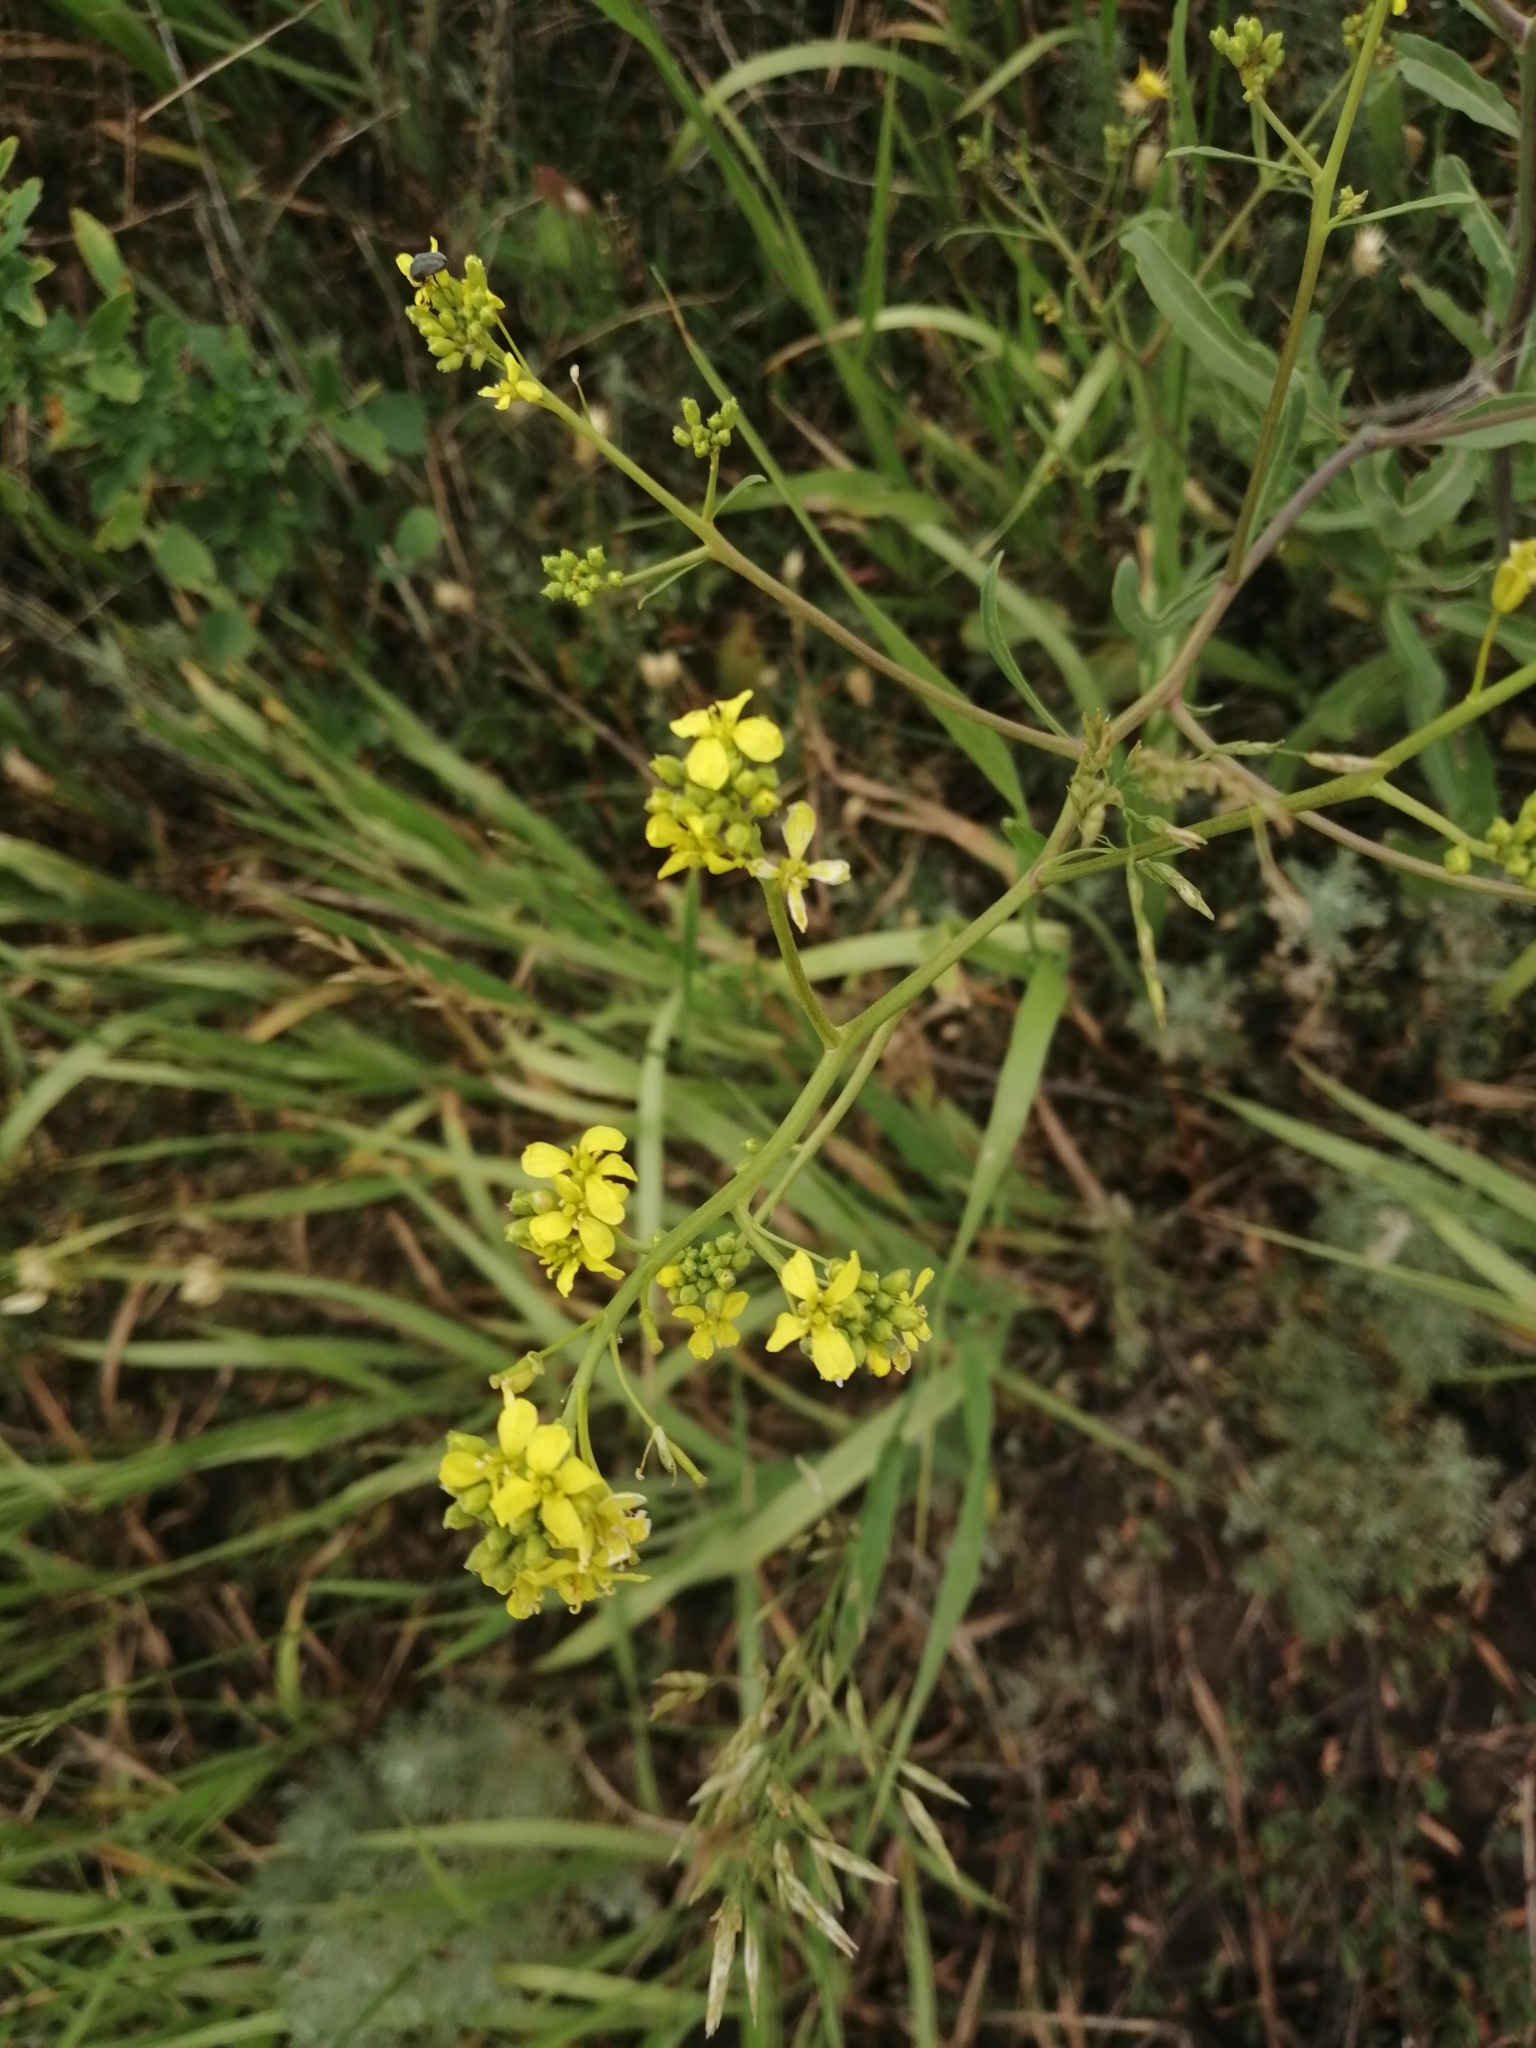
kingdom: Plantae
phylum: Tracheophyta
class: Magnoliopsida
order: Brassicales
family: Brassicaceae
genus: Brassica
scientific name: Brassica elongata
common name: Long-stalked rape
